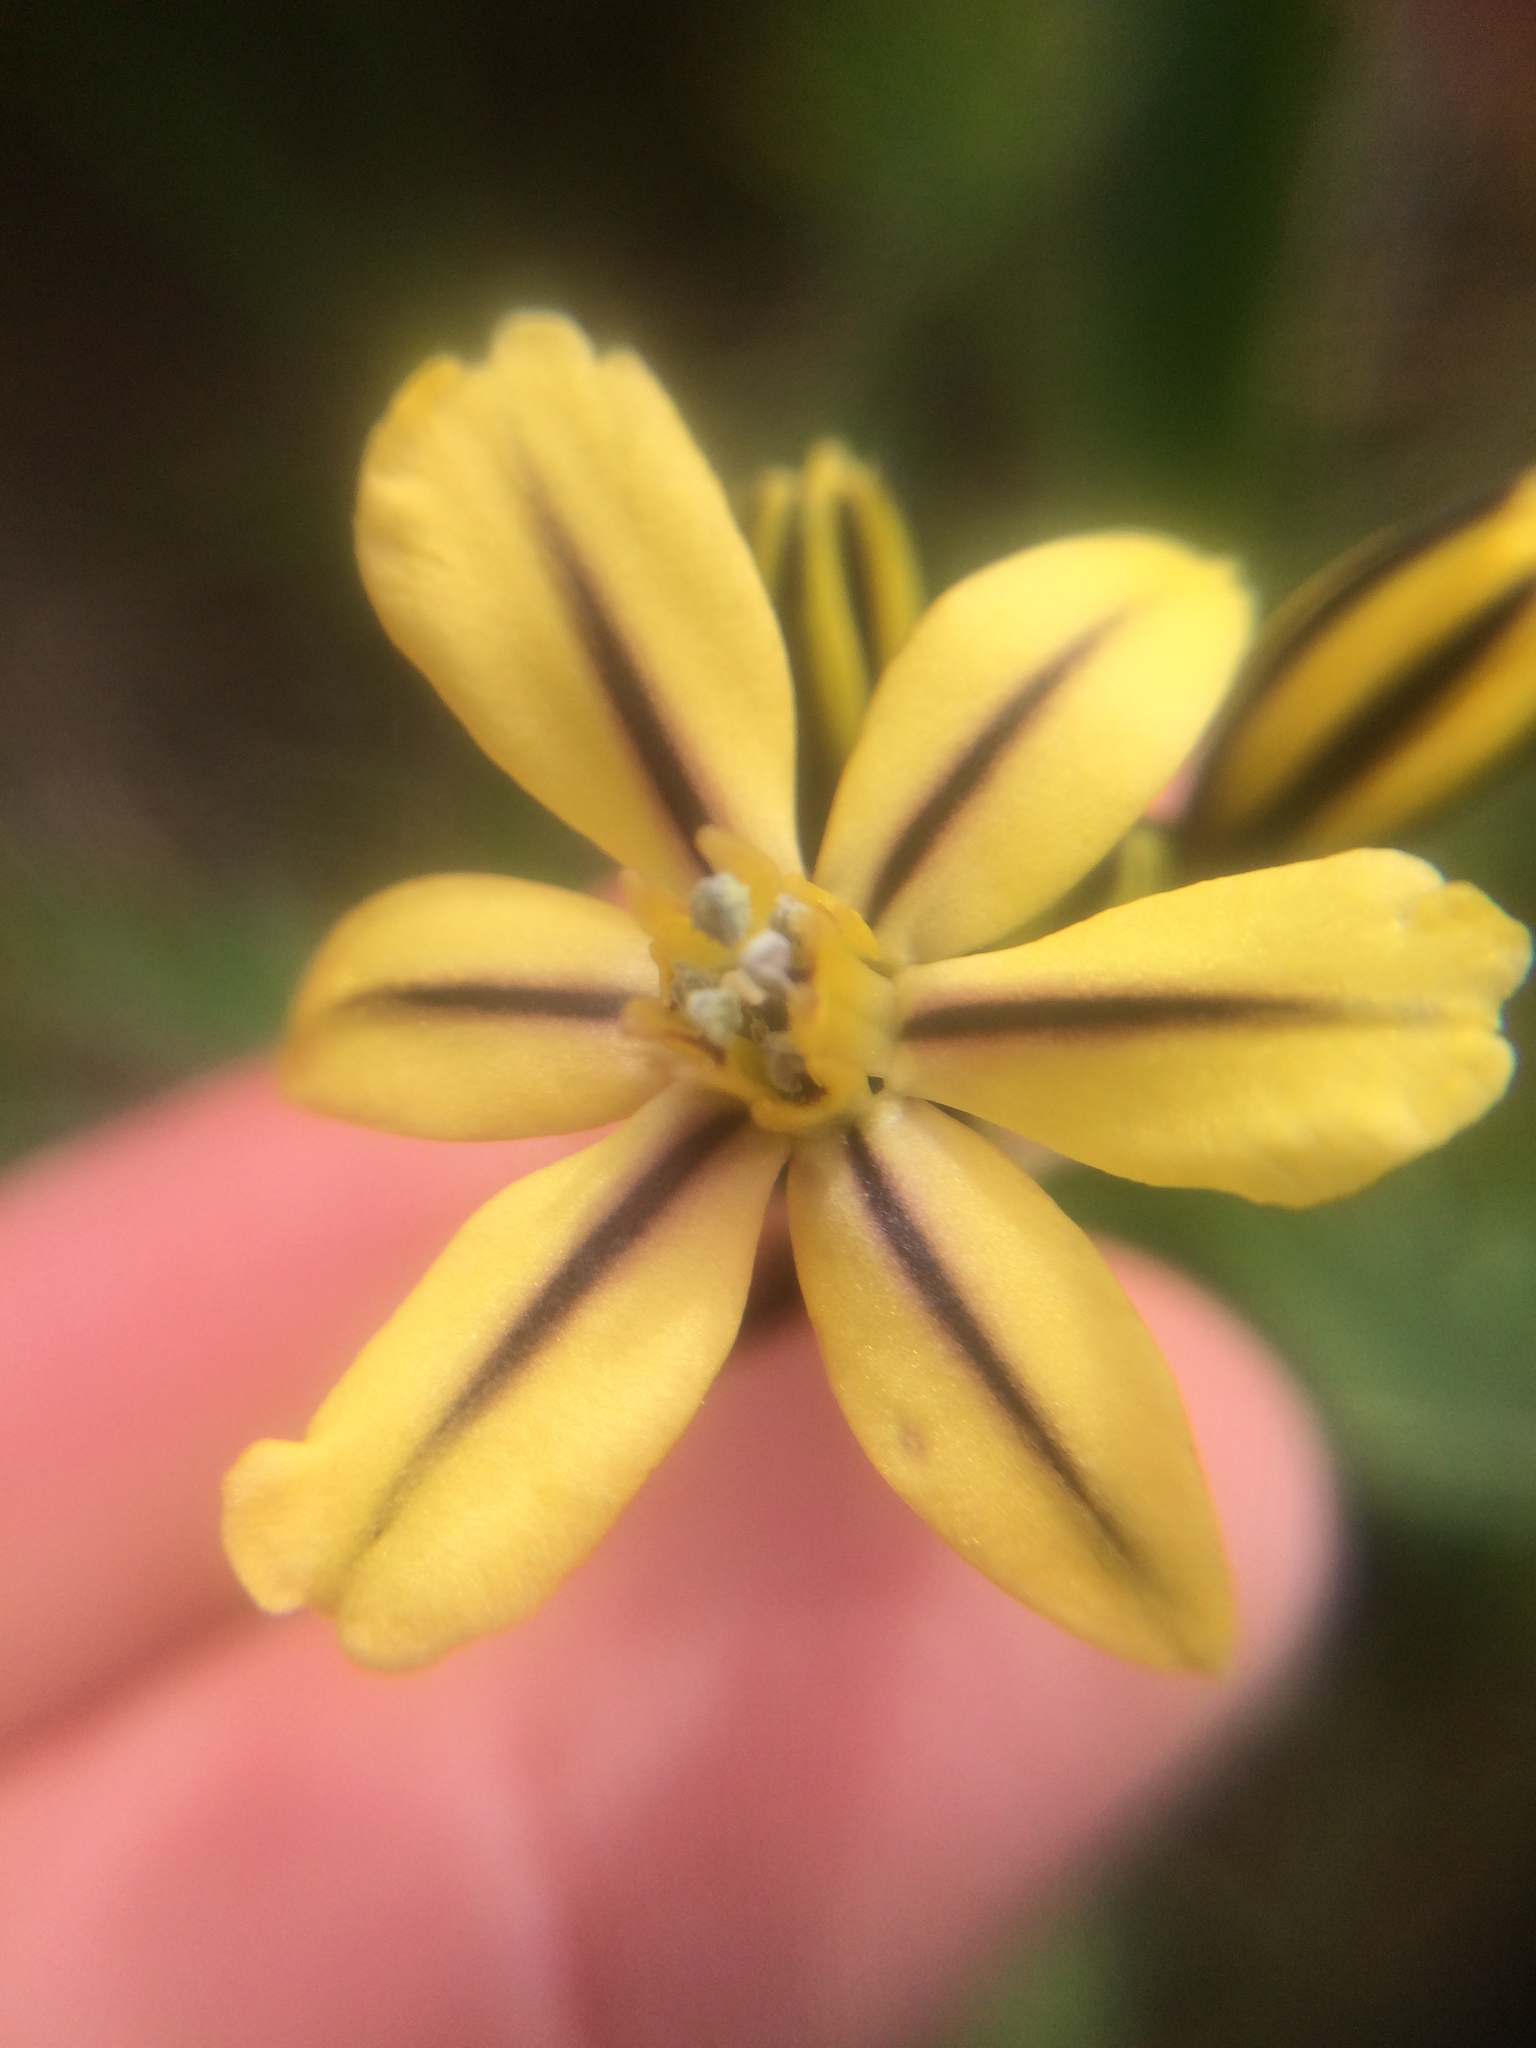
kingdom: Plantae
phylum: Tracheophyta
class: Liliopsida
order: Asparagales
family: Asparagaceae
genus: Triteleia
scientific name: Triteleia ixioides
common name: Yellow-brodiaea
